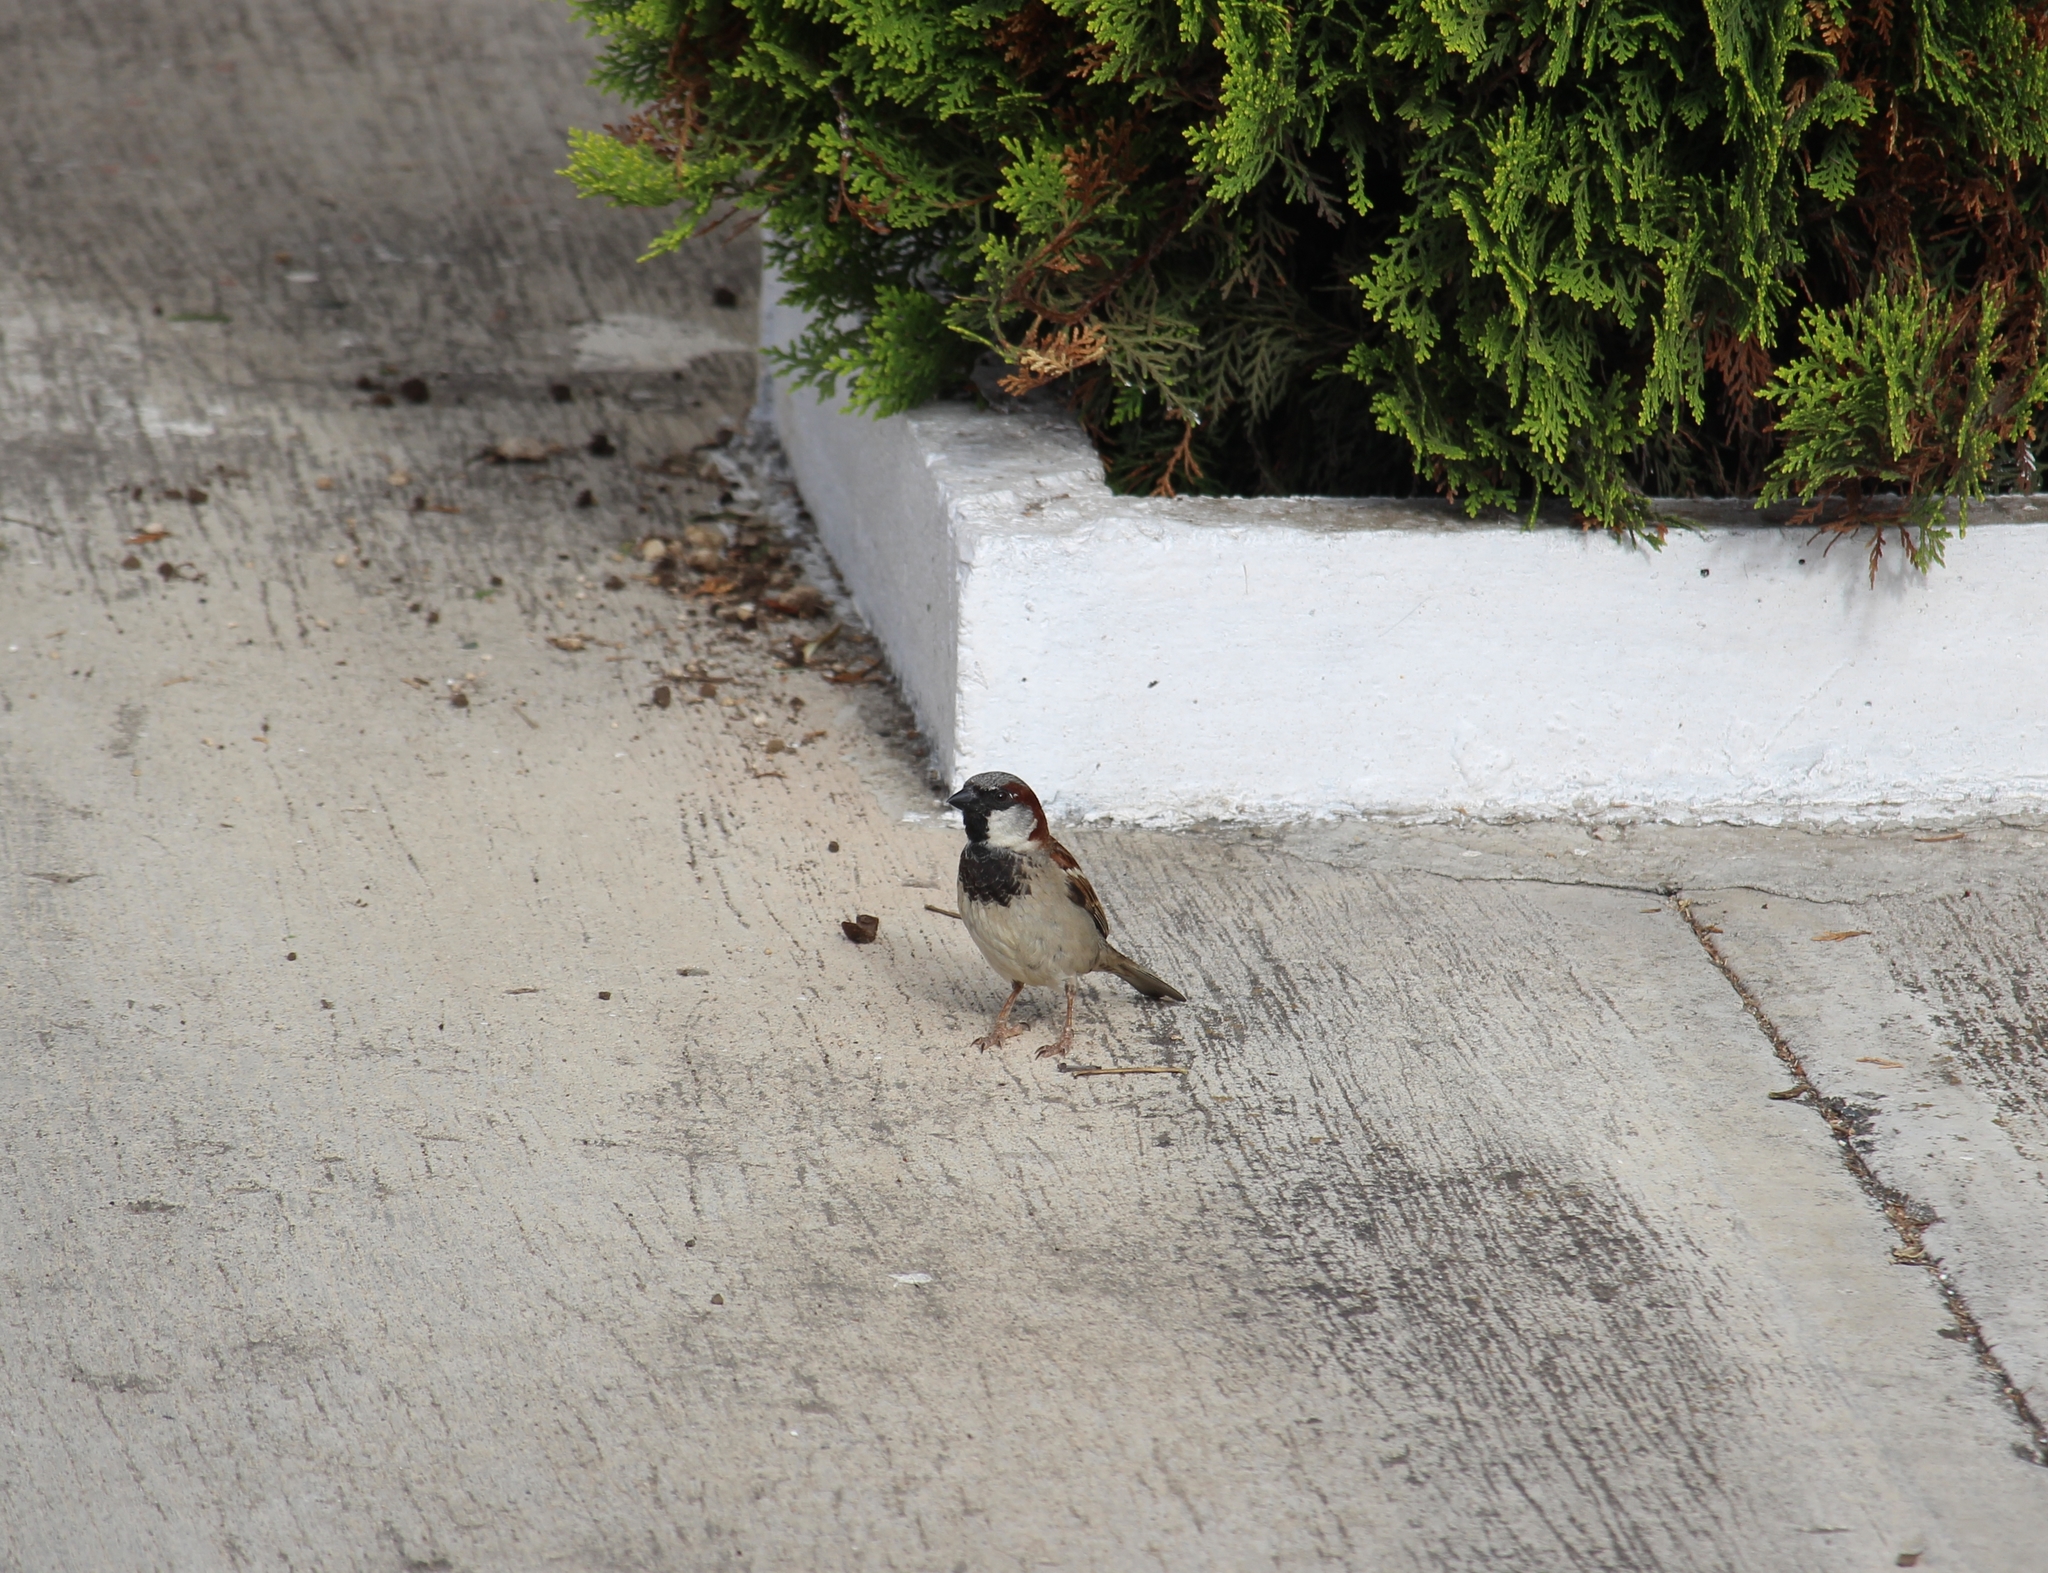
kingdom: Animalia
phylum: Chordata
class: Aves
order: Passeriformes
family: Passeridae
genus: Passer
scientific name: Passer domesticus
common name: House sparrow
